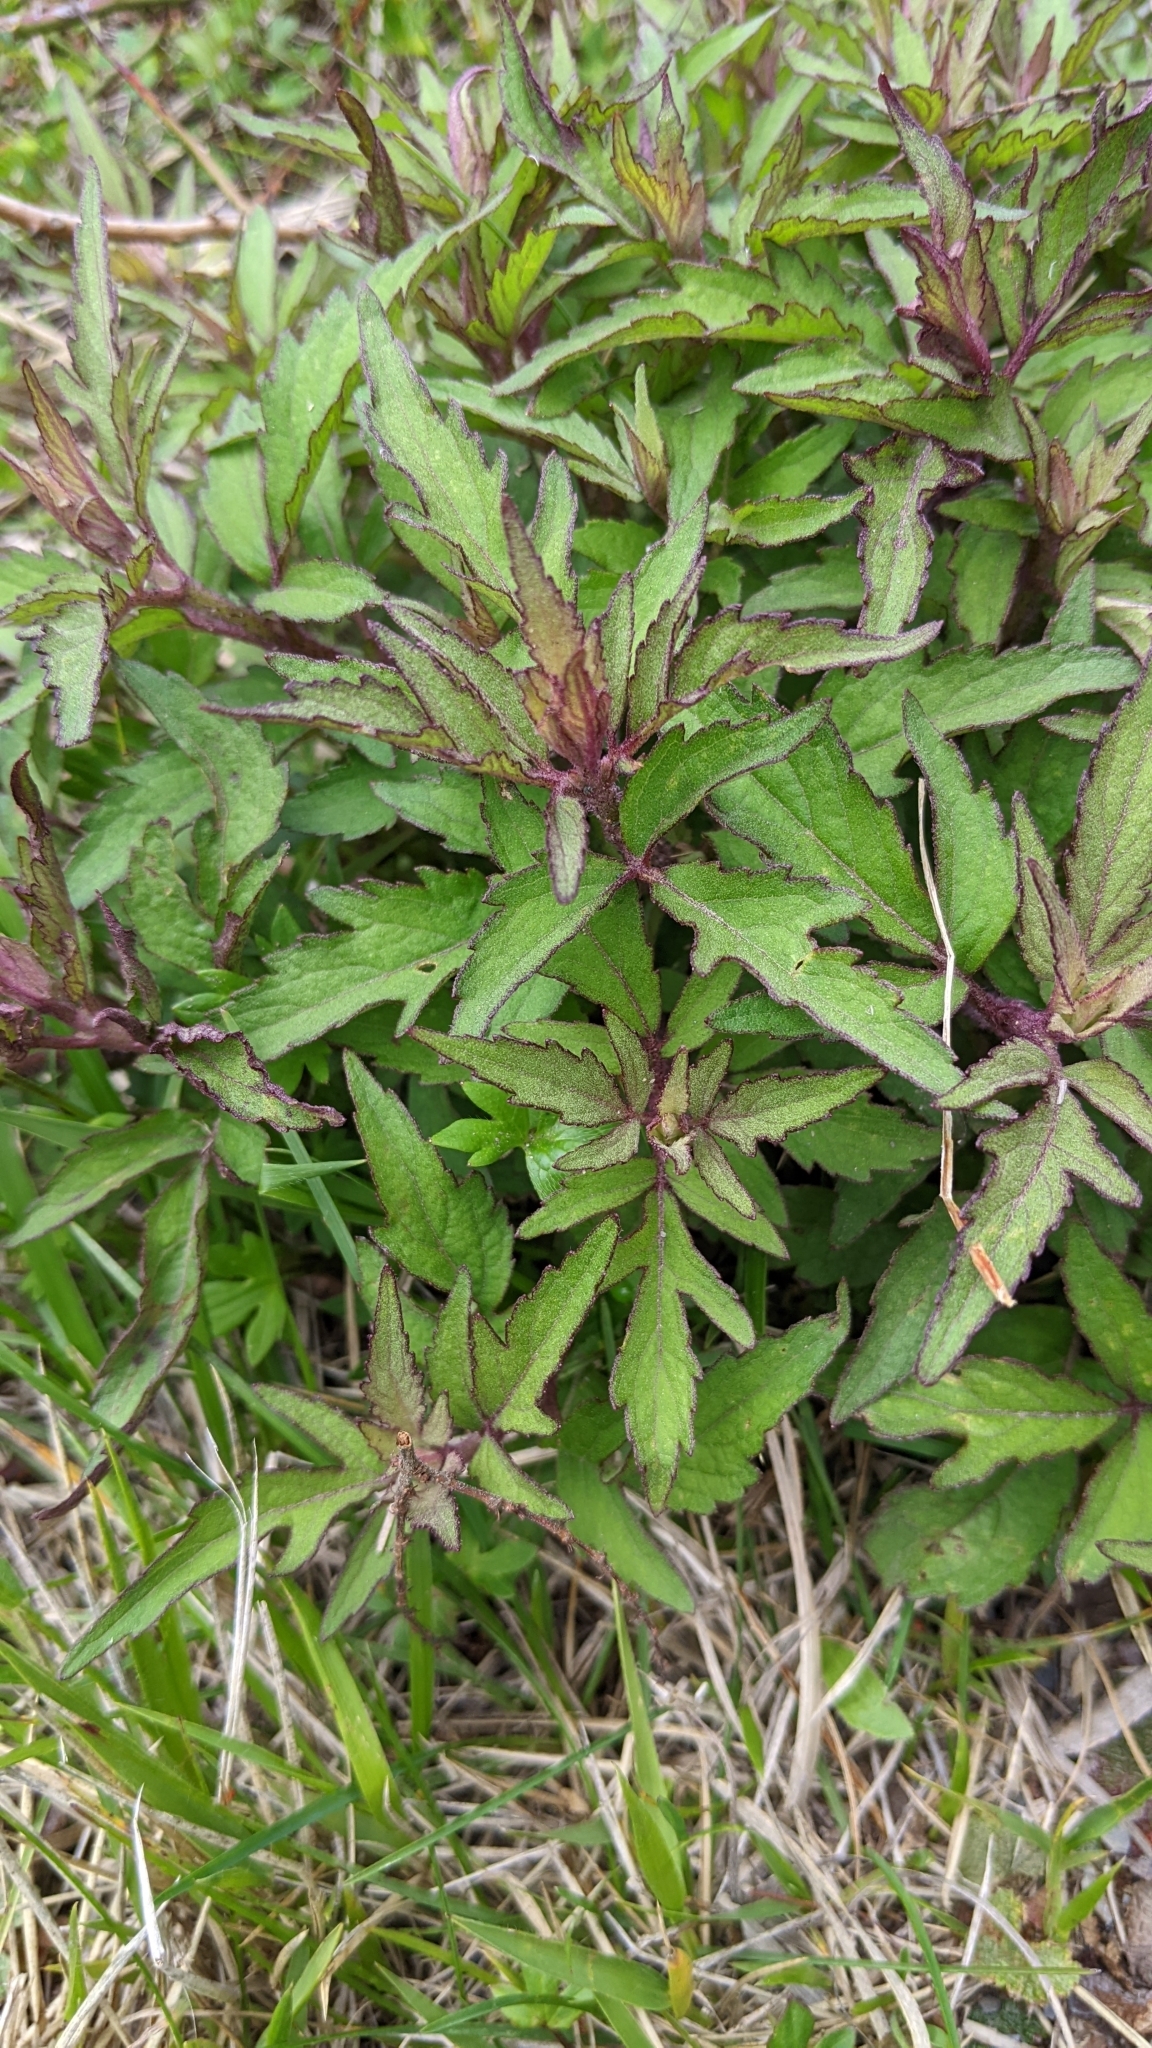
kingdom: Plantae
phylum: Tracheophyta
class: Magnoliopsida
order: Asterales
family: Asteraceae
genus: Eupatorium
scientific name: Eupatorium formosanum
